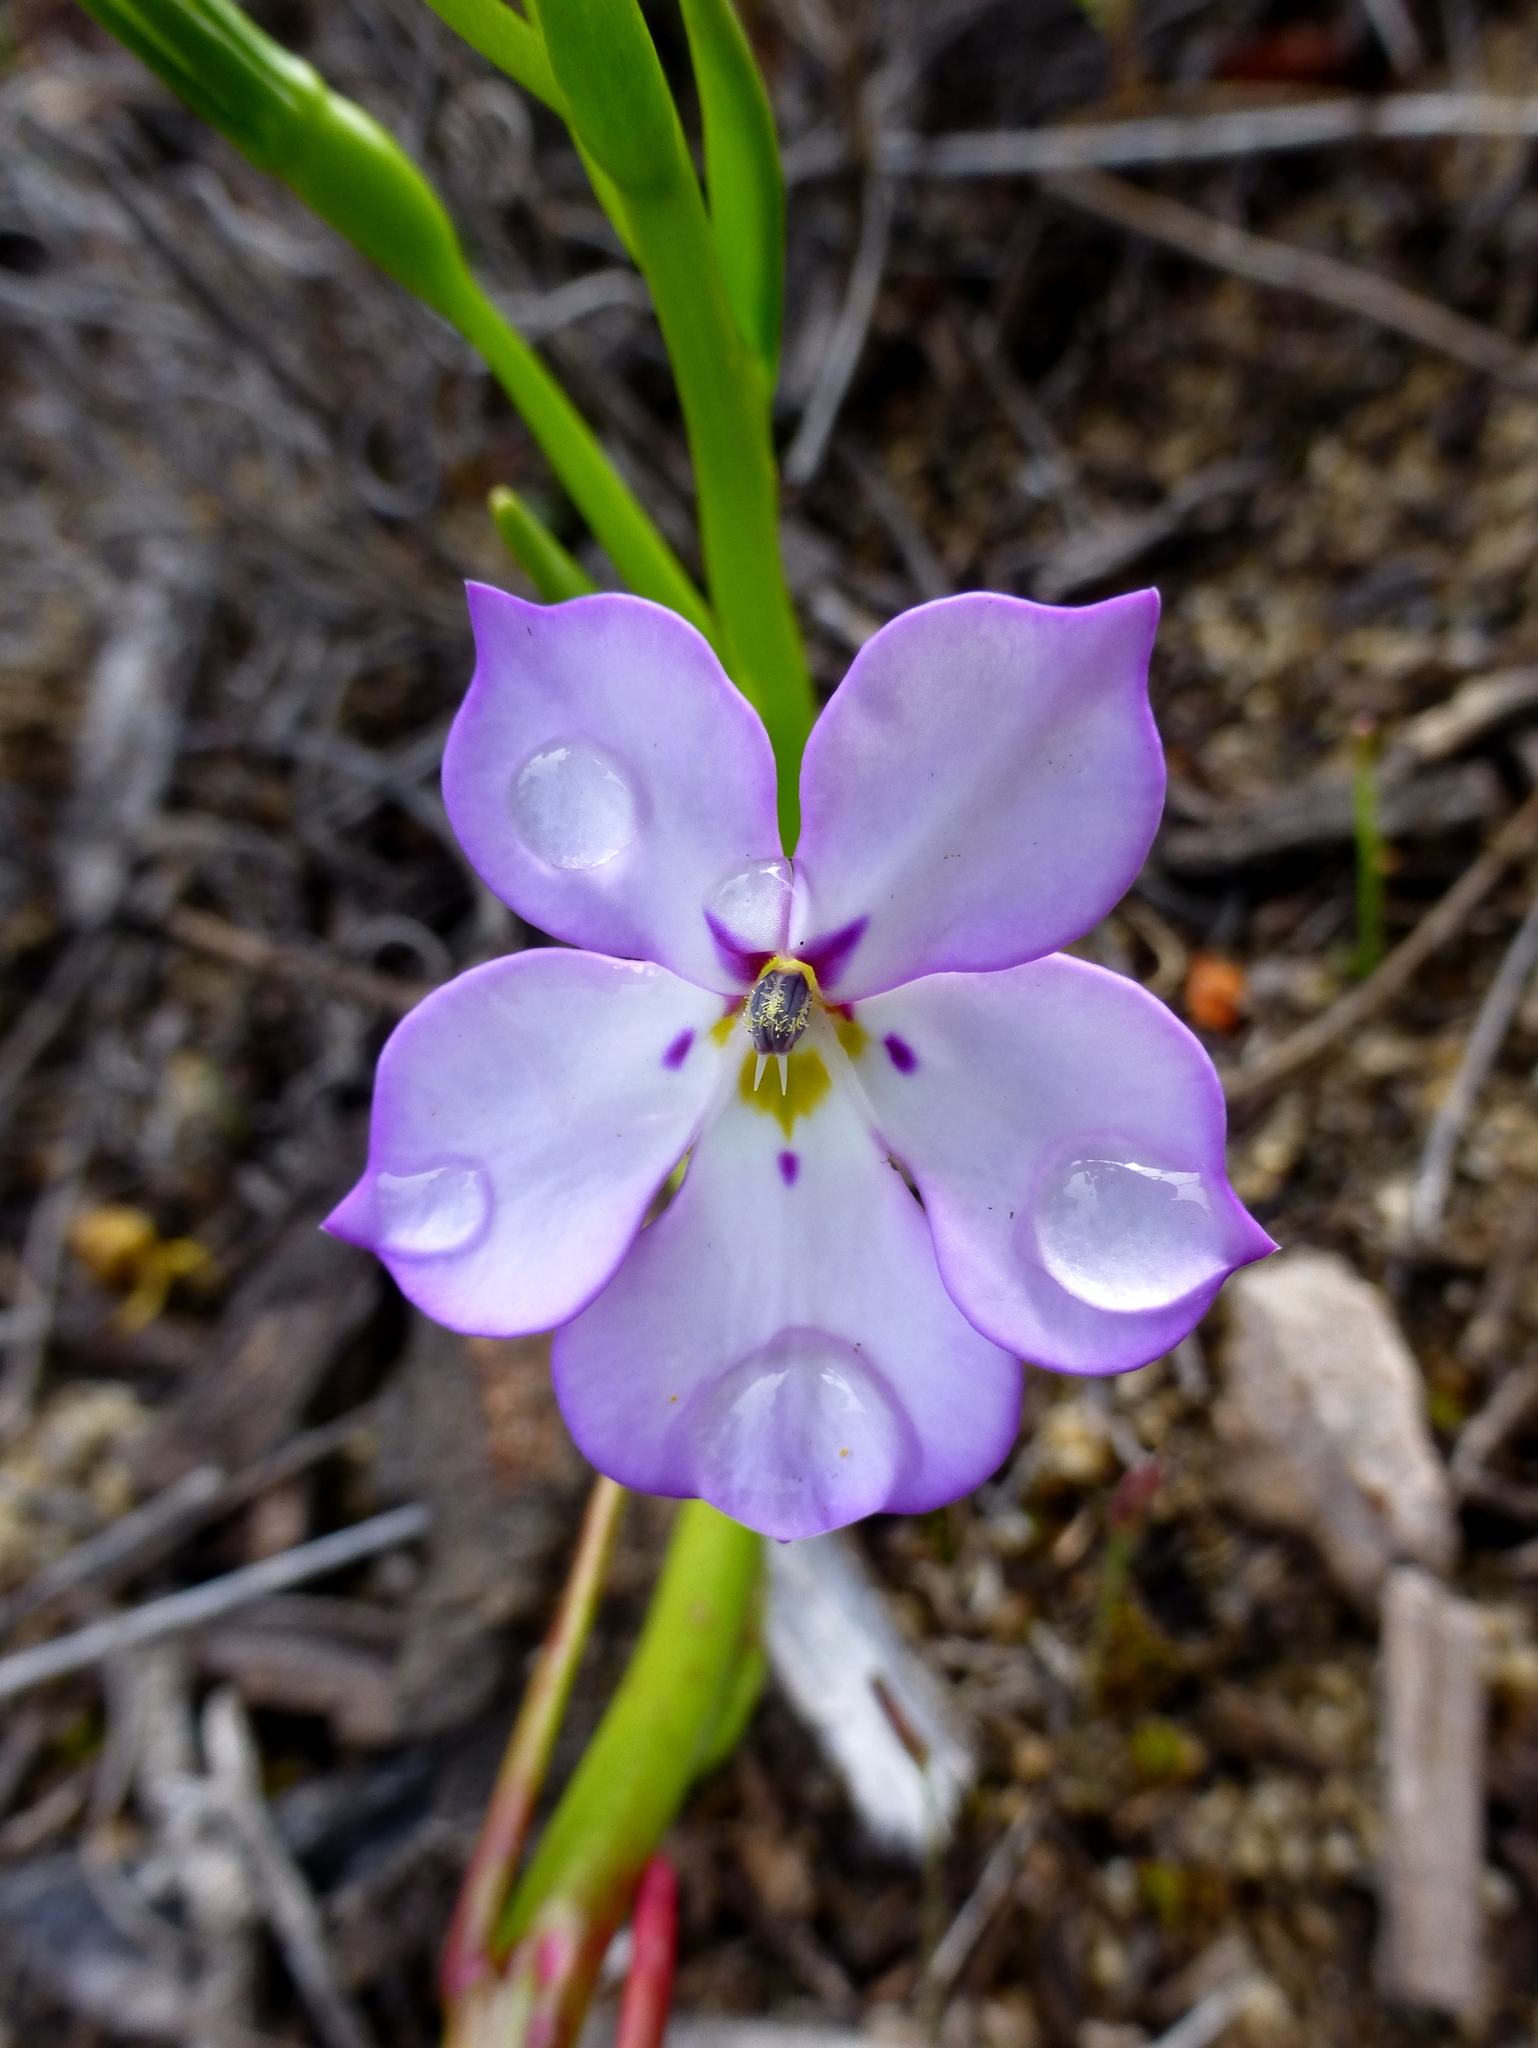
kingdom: Plantae
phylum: Tracheophyta
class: Magnoliopsida
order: Asterales
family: Campanulaceae
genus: Isotoma
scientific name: Isotoma hypocrateriformis
